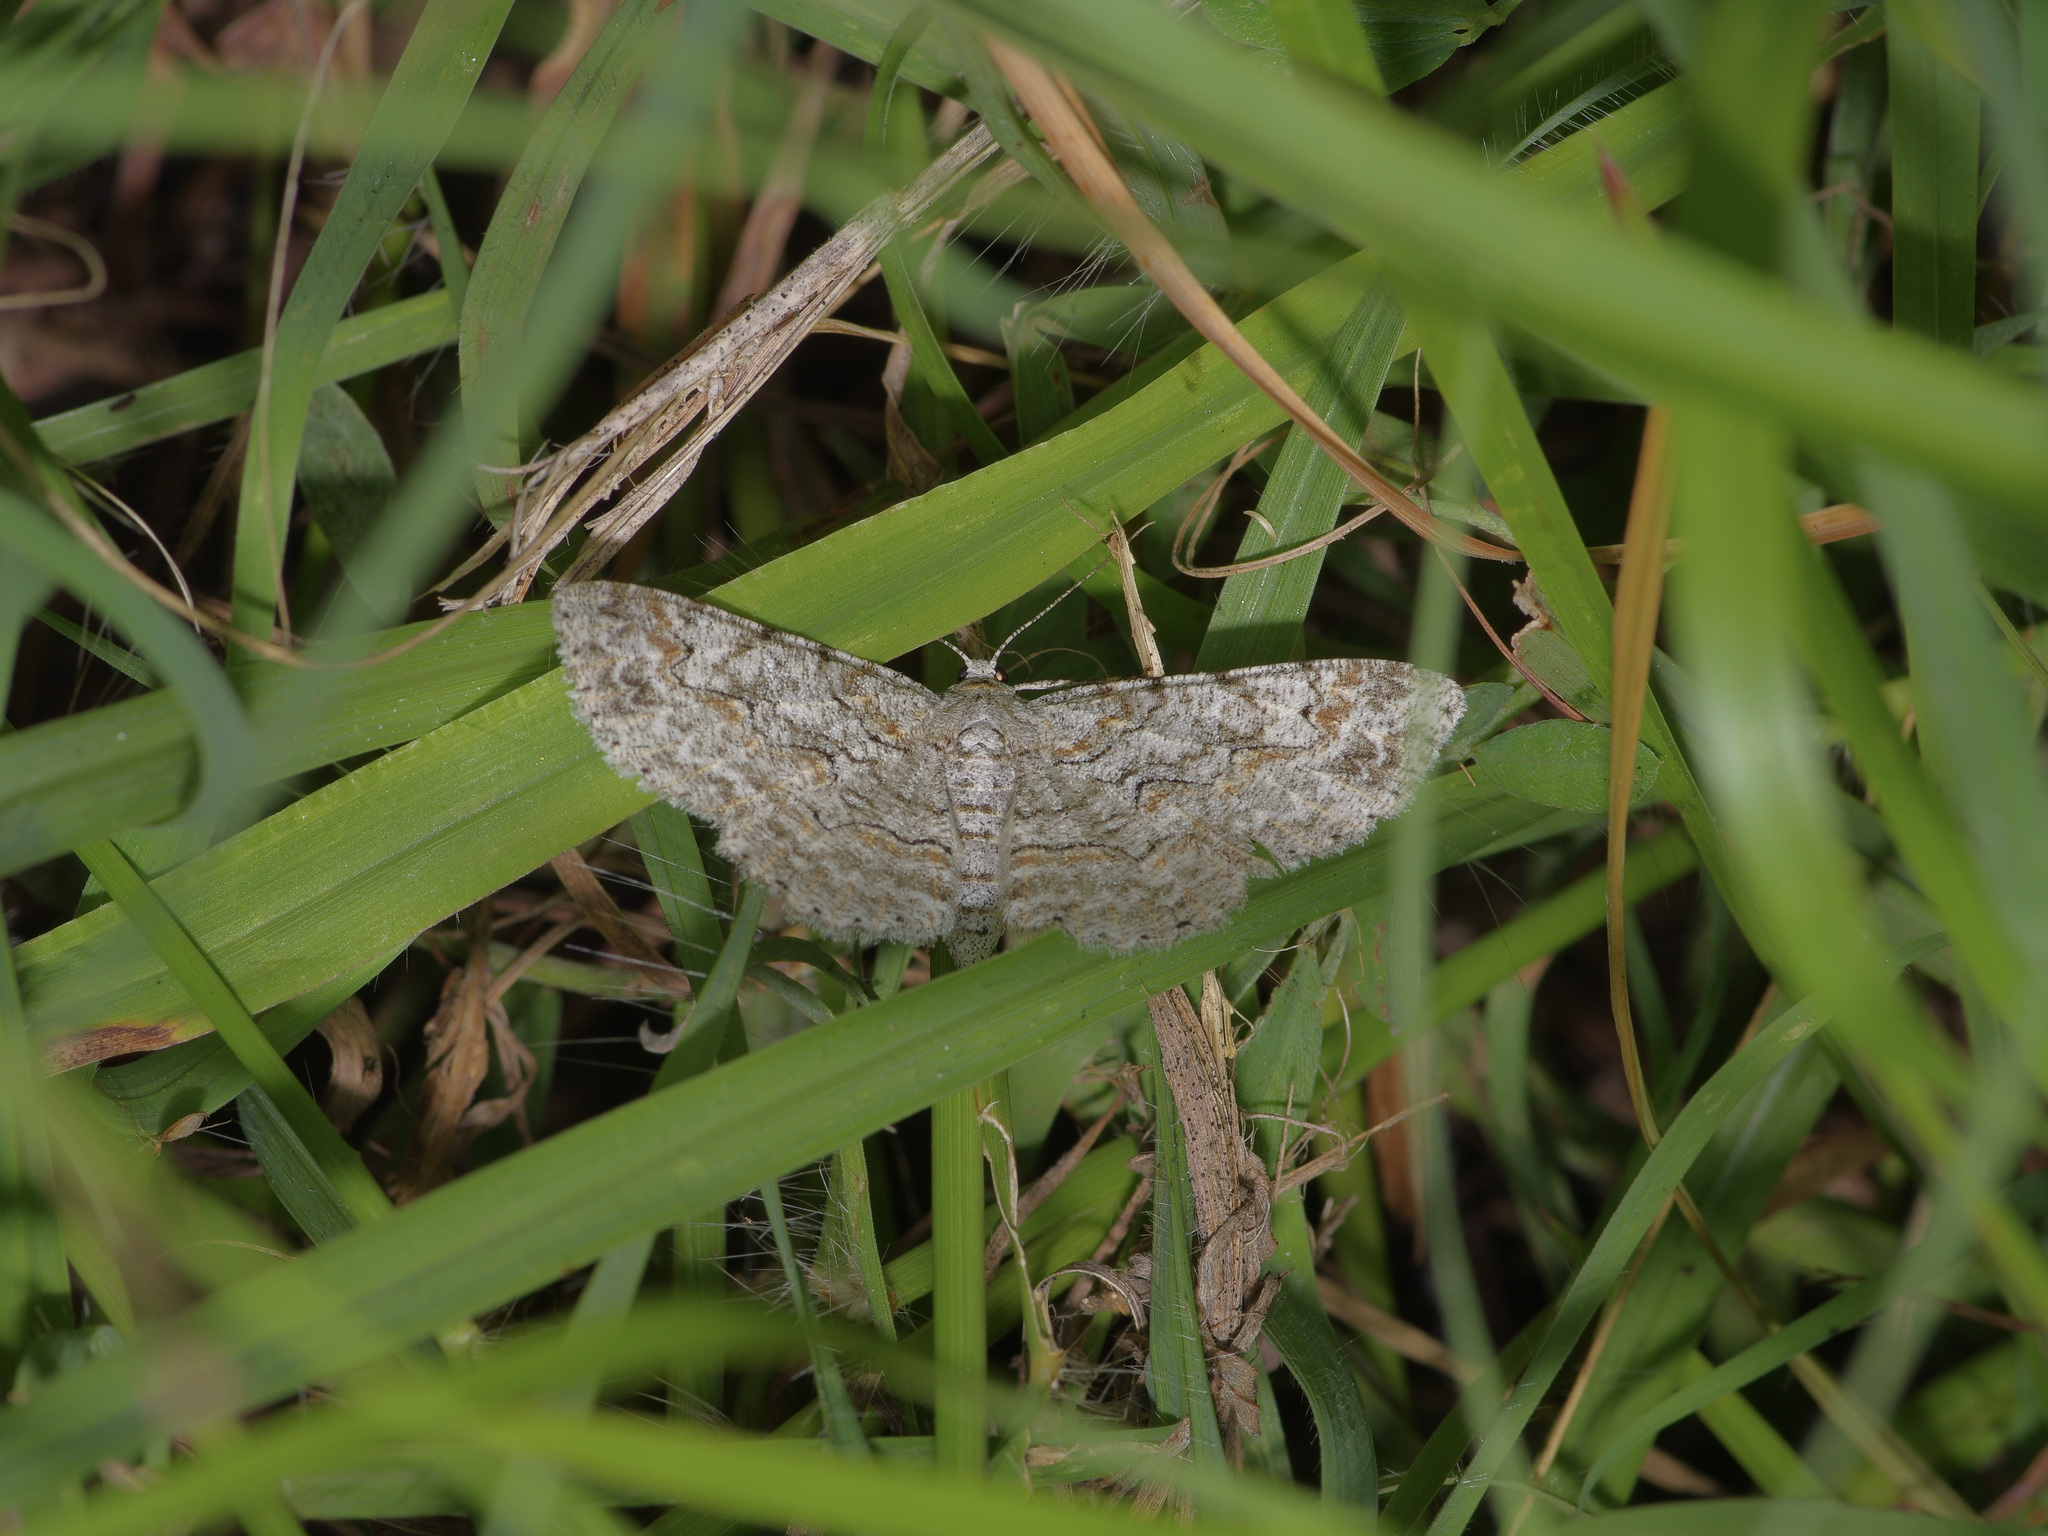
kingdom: Animalia
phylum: Arthropoda
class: Insecta
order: Lepidoptera
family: Geometridae
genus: Iridopsis
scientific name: Iridopsis defectaria
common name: Brown-shaded gray
